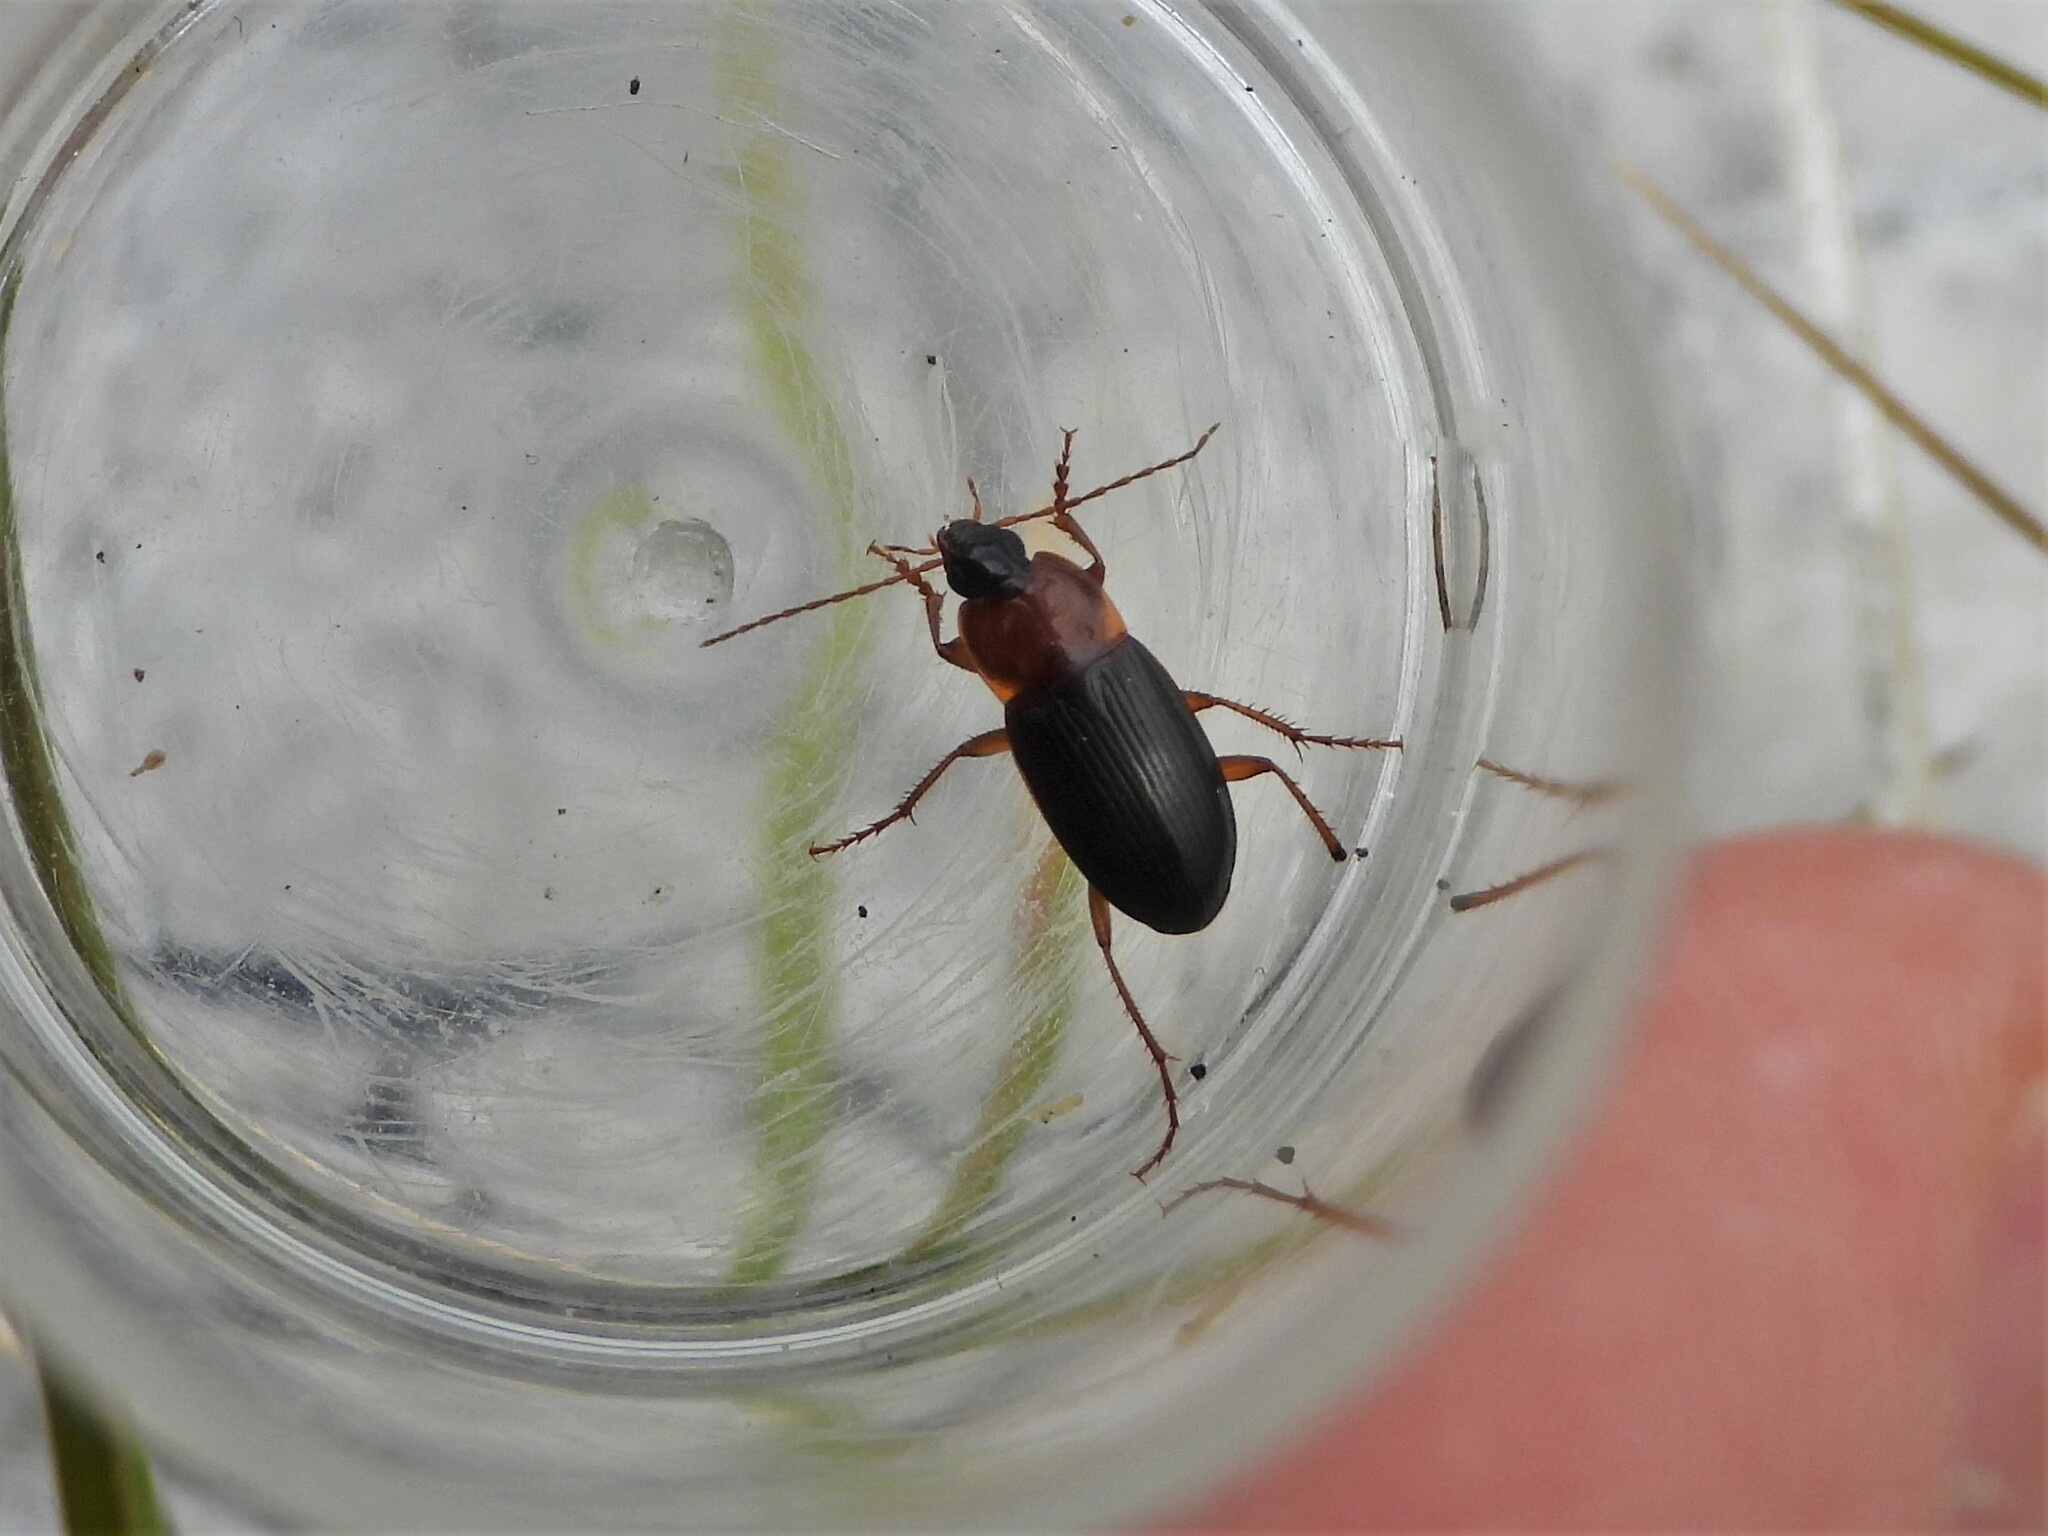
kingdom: Animalia
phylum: Arthropoda
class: Insecta
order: Coleoptera
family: Carabidae
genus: Calathus
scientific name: Calathus melanocephalus
